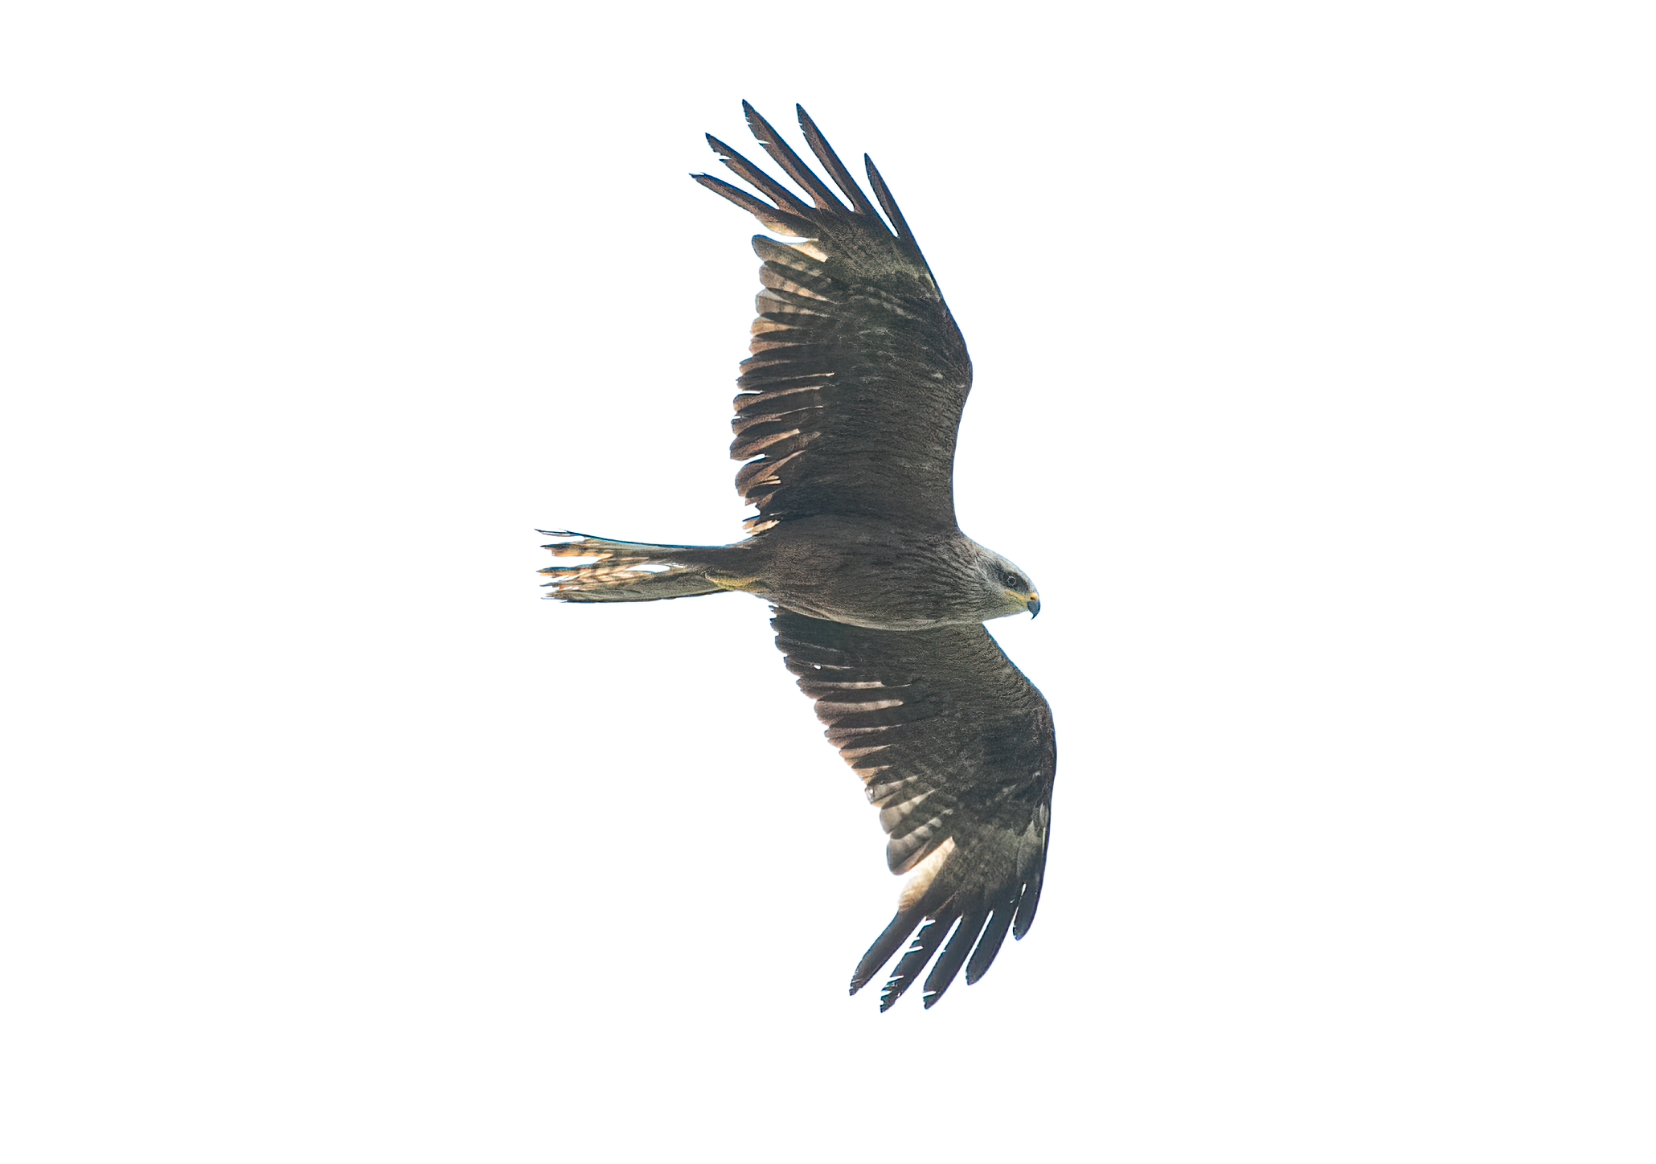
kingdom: Animalia
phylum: Chordata
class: Aves
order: Accipitriformes
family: Accipitridae
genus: Milvus
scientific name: Milvus migrans
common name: Black kite
